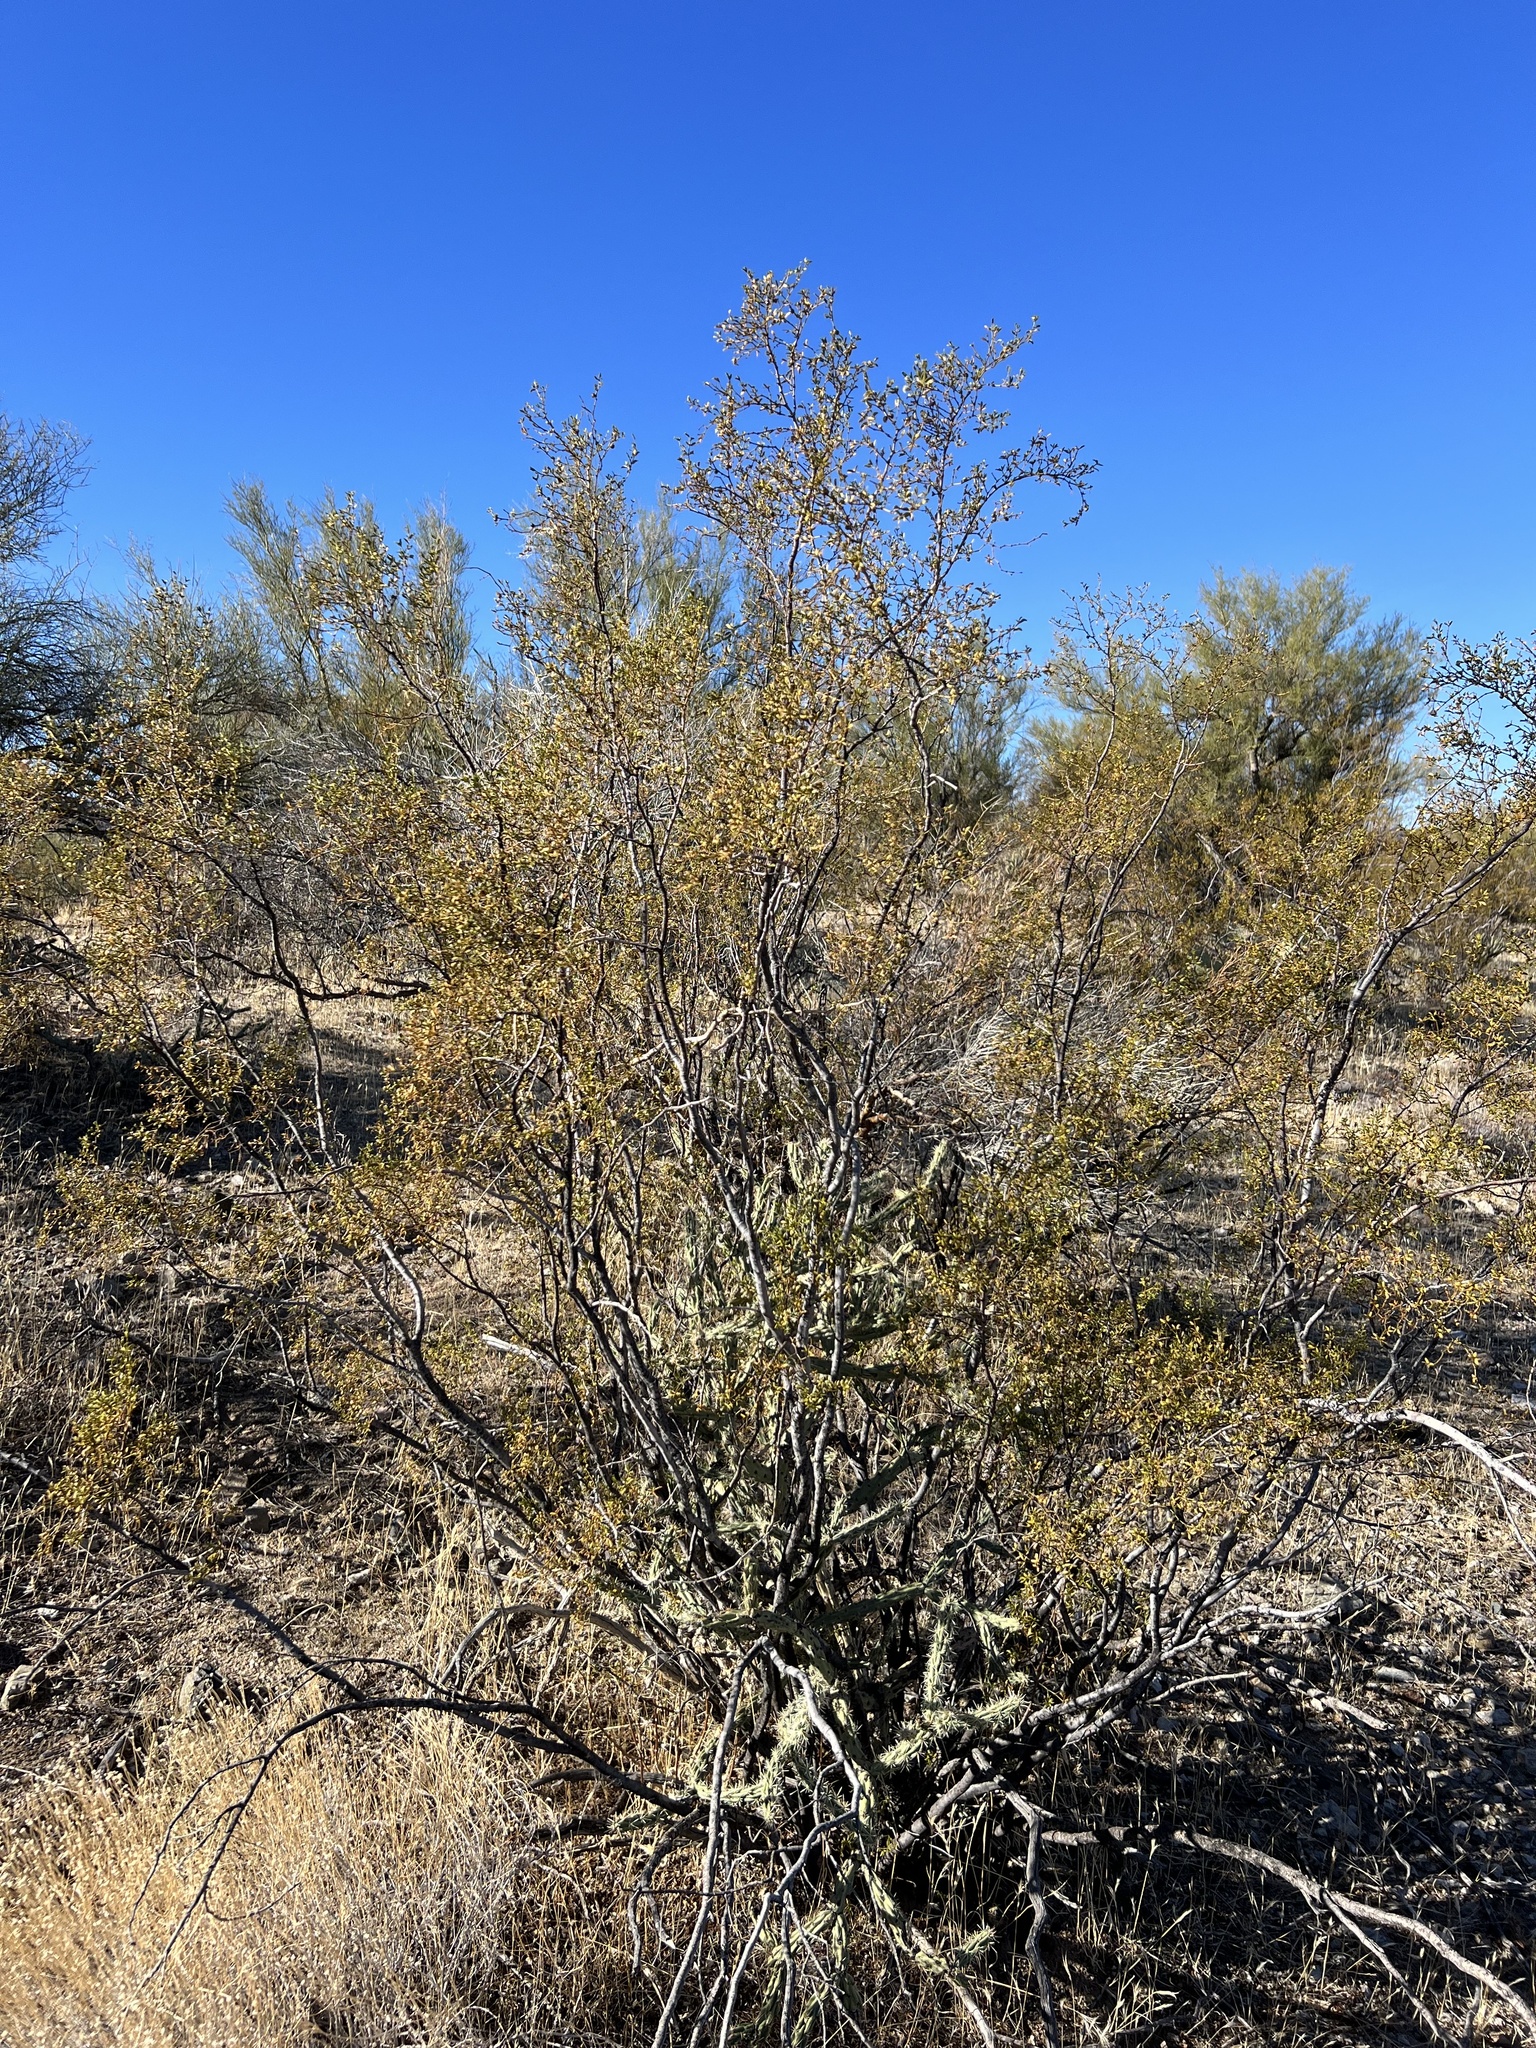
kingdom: Plantae
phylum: Tracheophyta
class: Magnoliopsida
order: Zygophyllales
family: Zygophyllaceae
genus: Larrea
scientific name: Larrea tridentata
